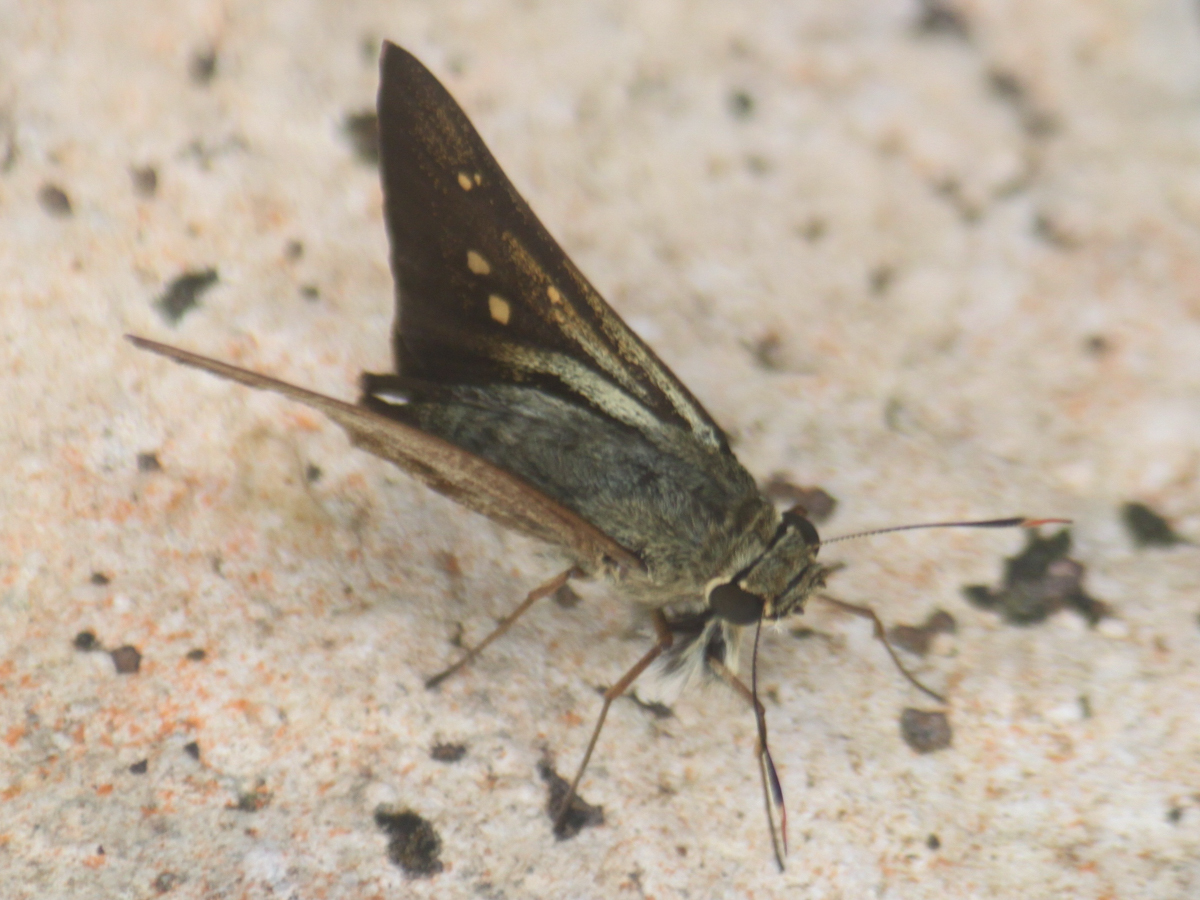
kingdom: Animalia
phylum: Arthropoda
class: Insecta
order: Lepidoptera
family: Hesperiidae
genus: Pithauria
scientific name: Pithauria stramineipennis
